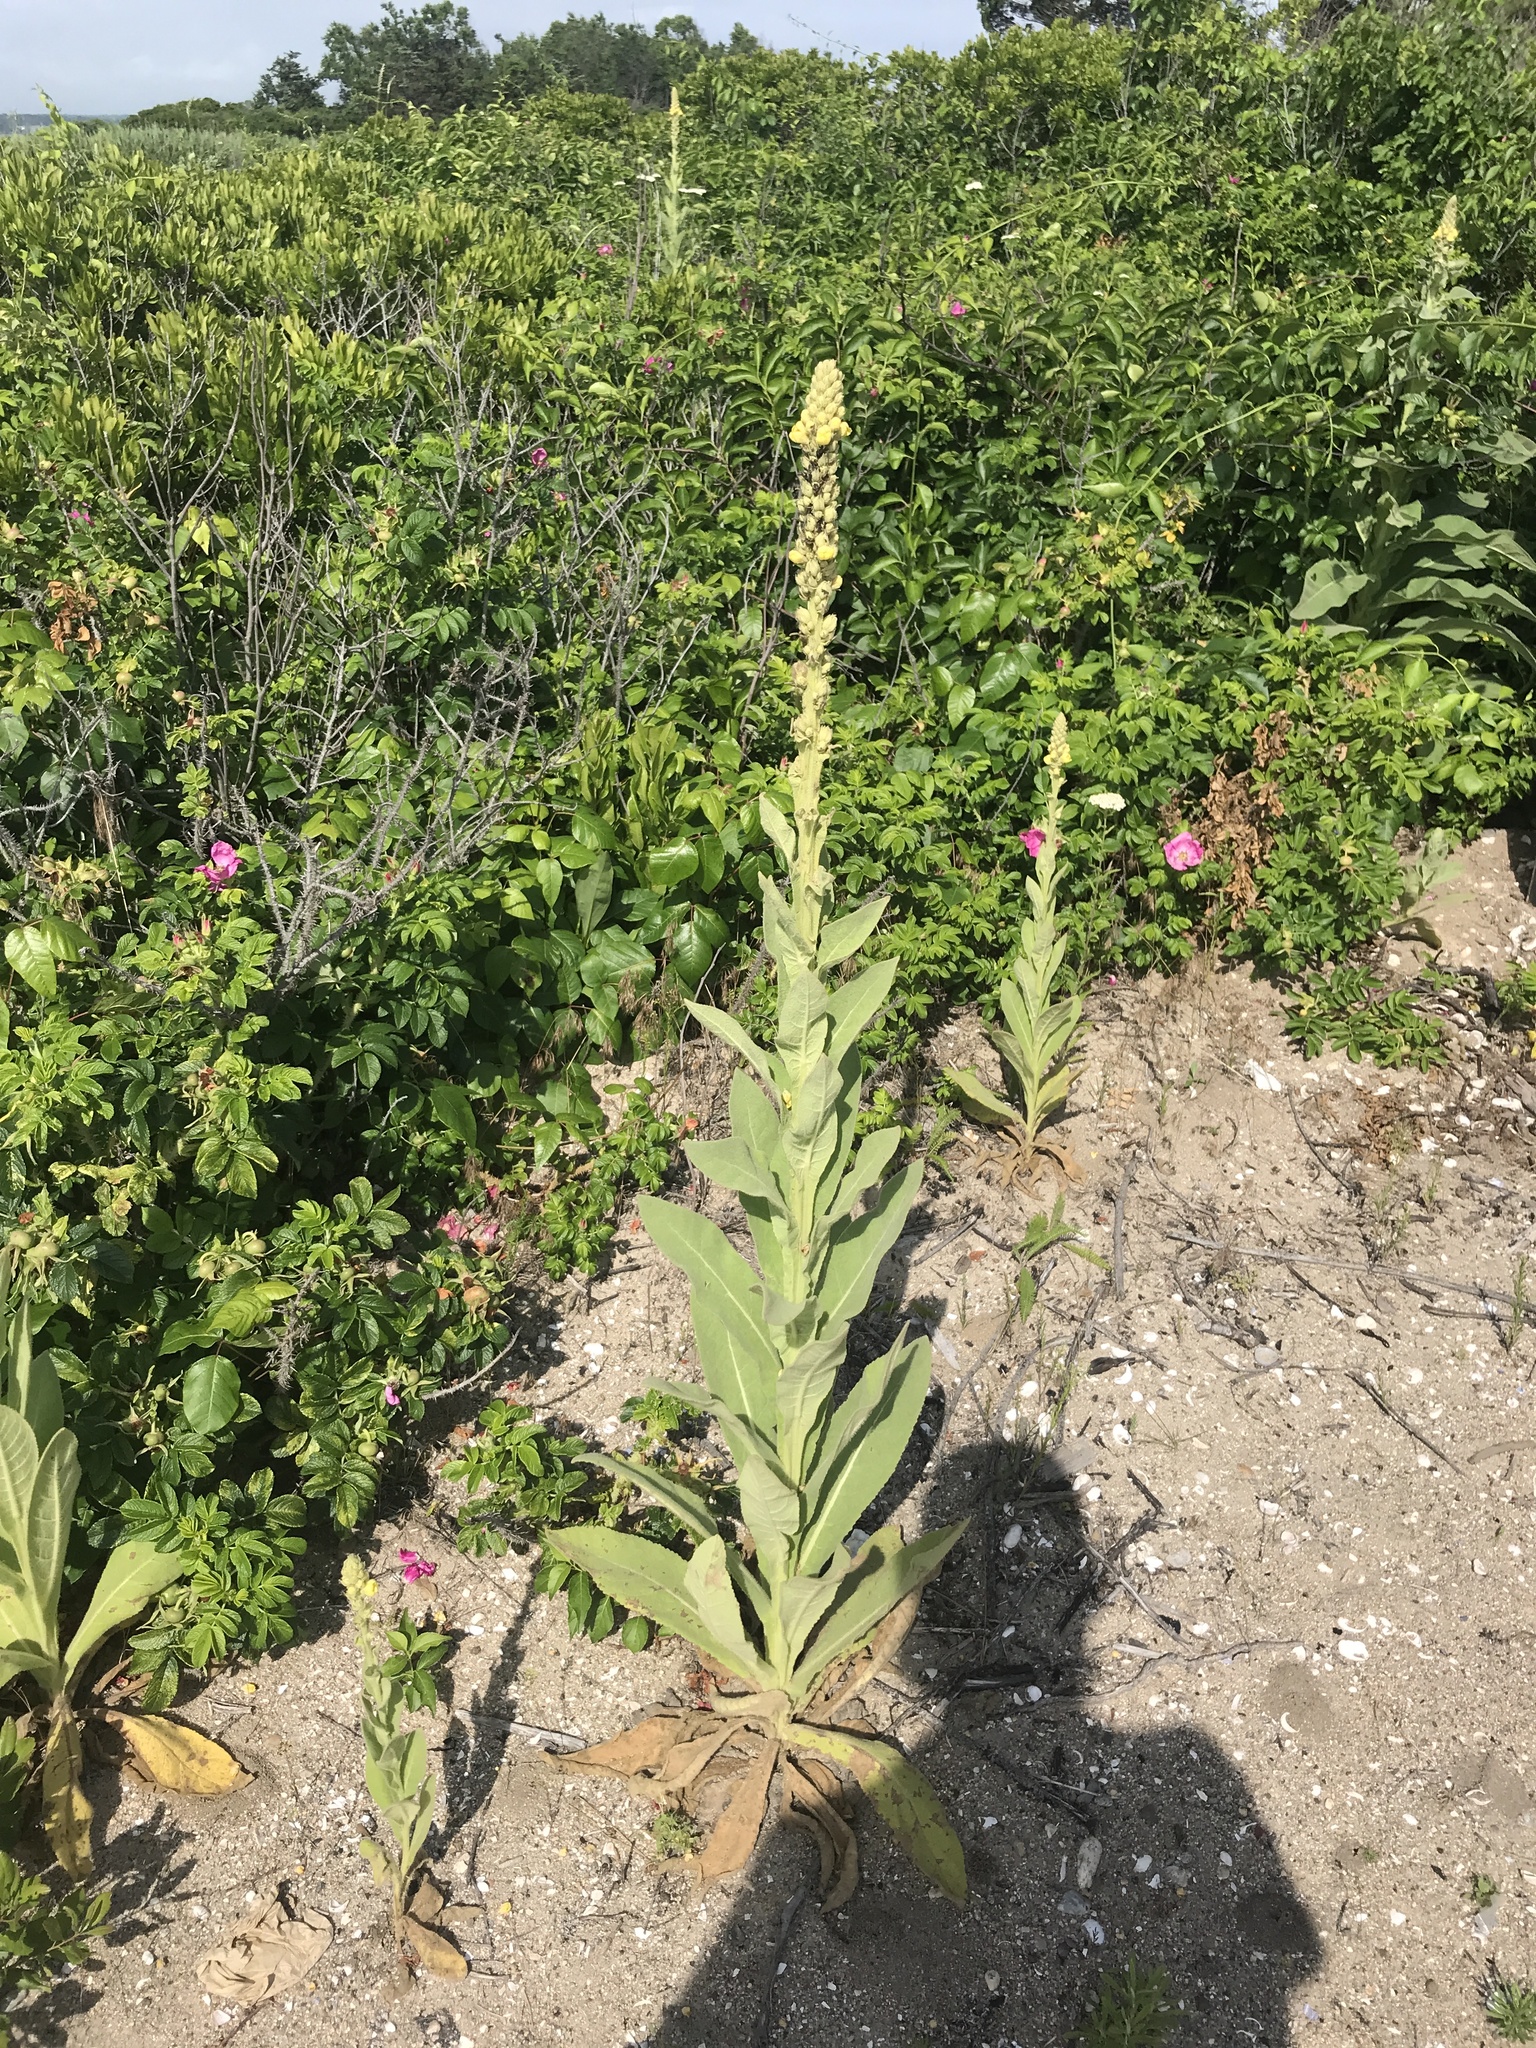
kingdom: Plantae
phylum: Tracheophyta
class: Magnoliopsida
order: Lamiales
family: Scrophulariaceae
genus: Verbascum
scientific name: Verbascum thapsus
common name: Common mullein
